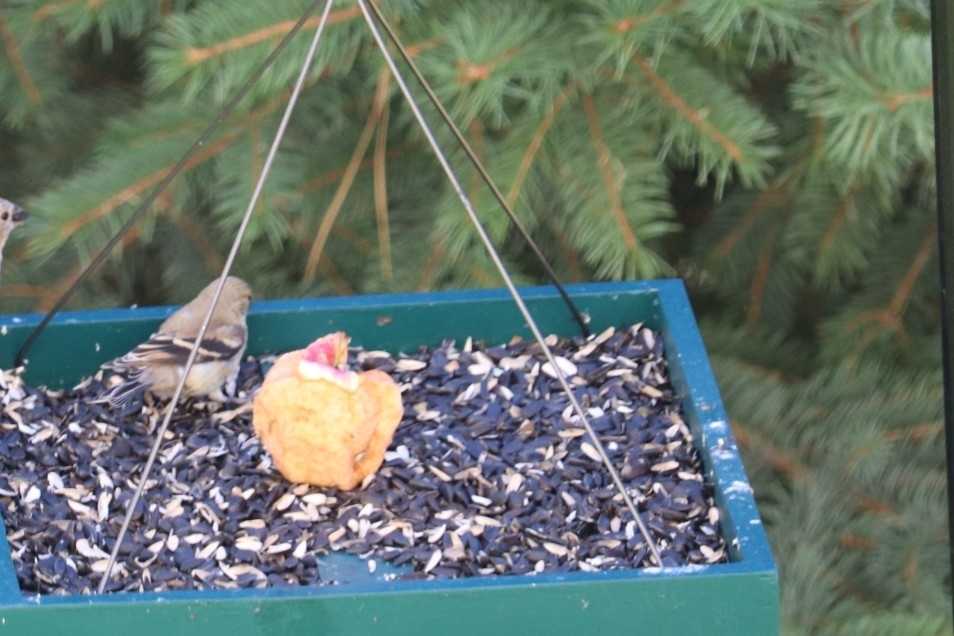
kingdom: Animalia
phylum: Chordata
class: Aves
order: Passeriformes
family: Fringillidae
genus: Spinus
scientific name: Spinus tristis
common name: American goldfinch
